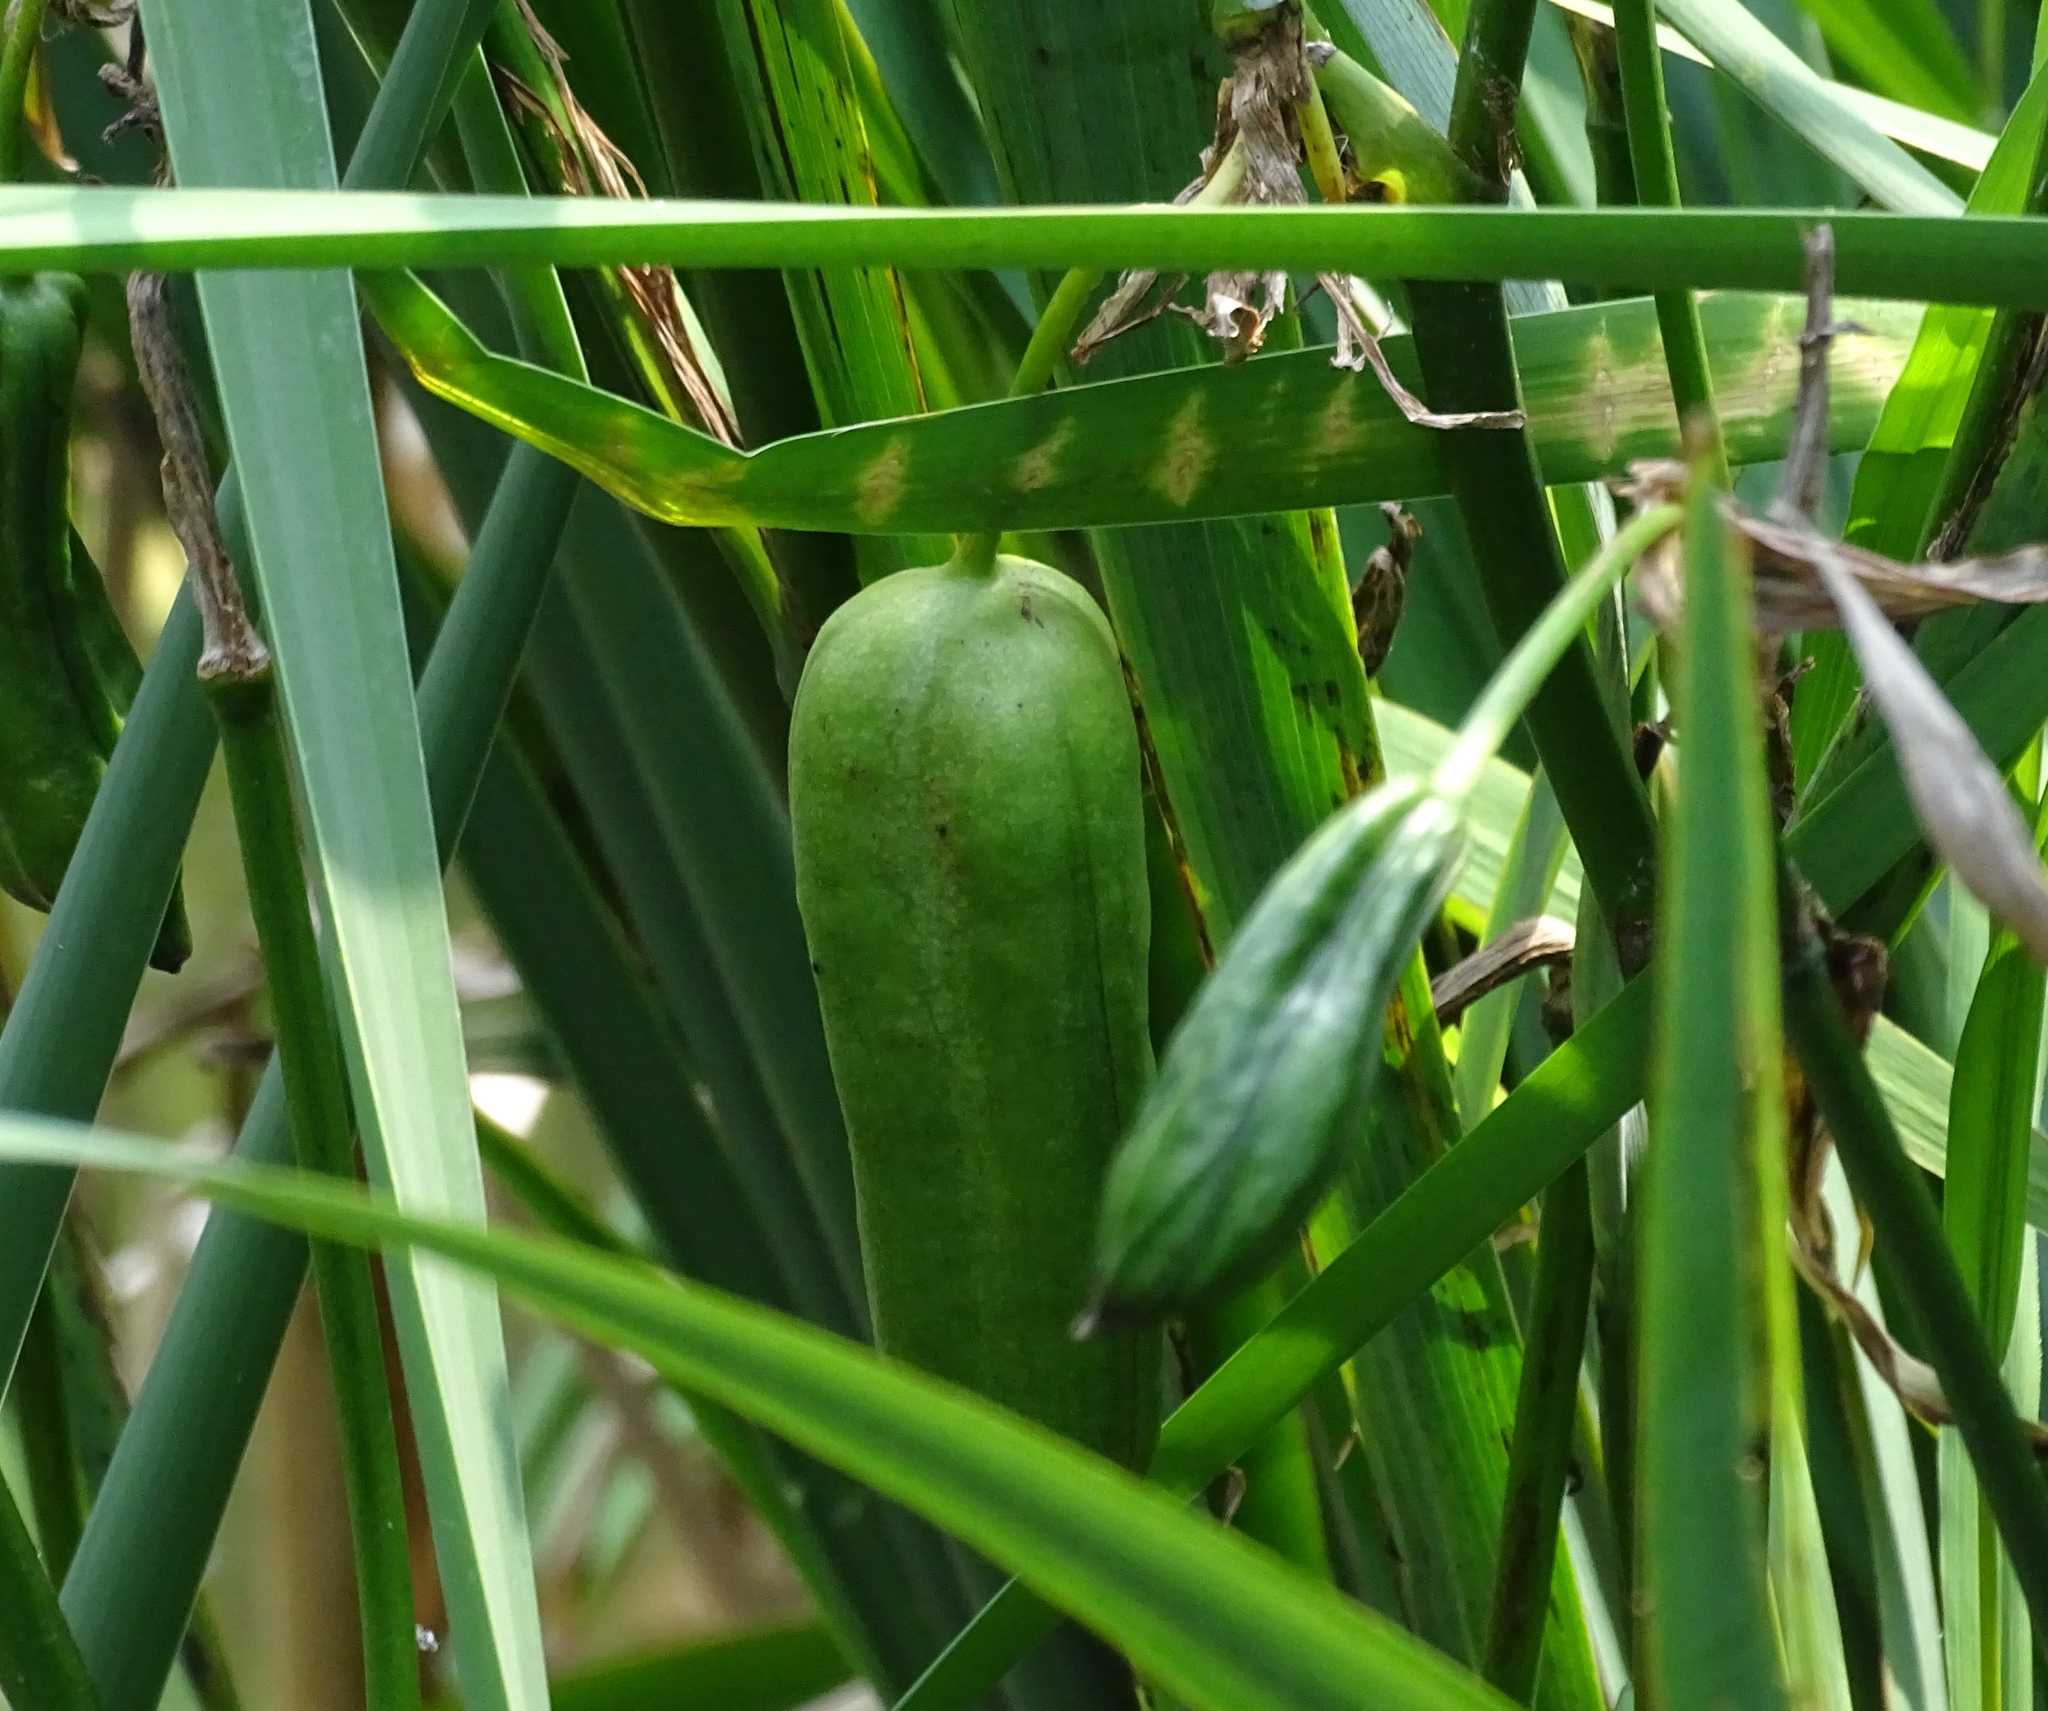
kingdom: Plantae
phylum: Tracheophyta
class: Liliopsida
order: Asparagales
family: Iridaceae
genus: Iris
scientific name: Iris pseudacorus
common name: Yellow flag
